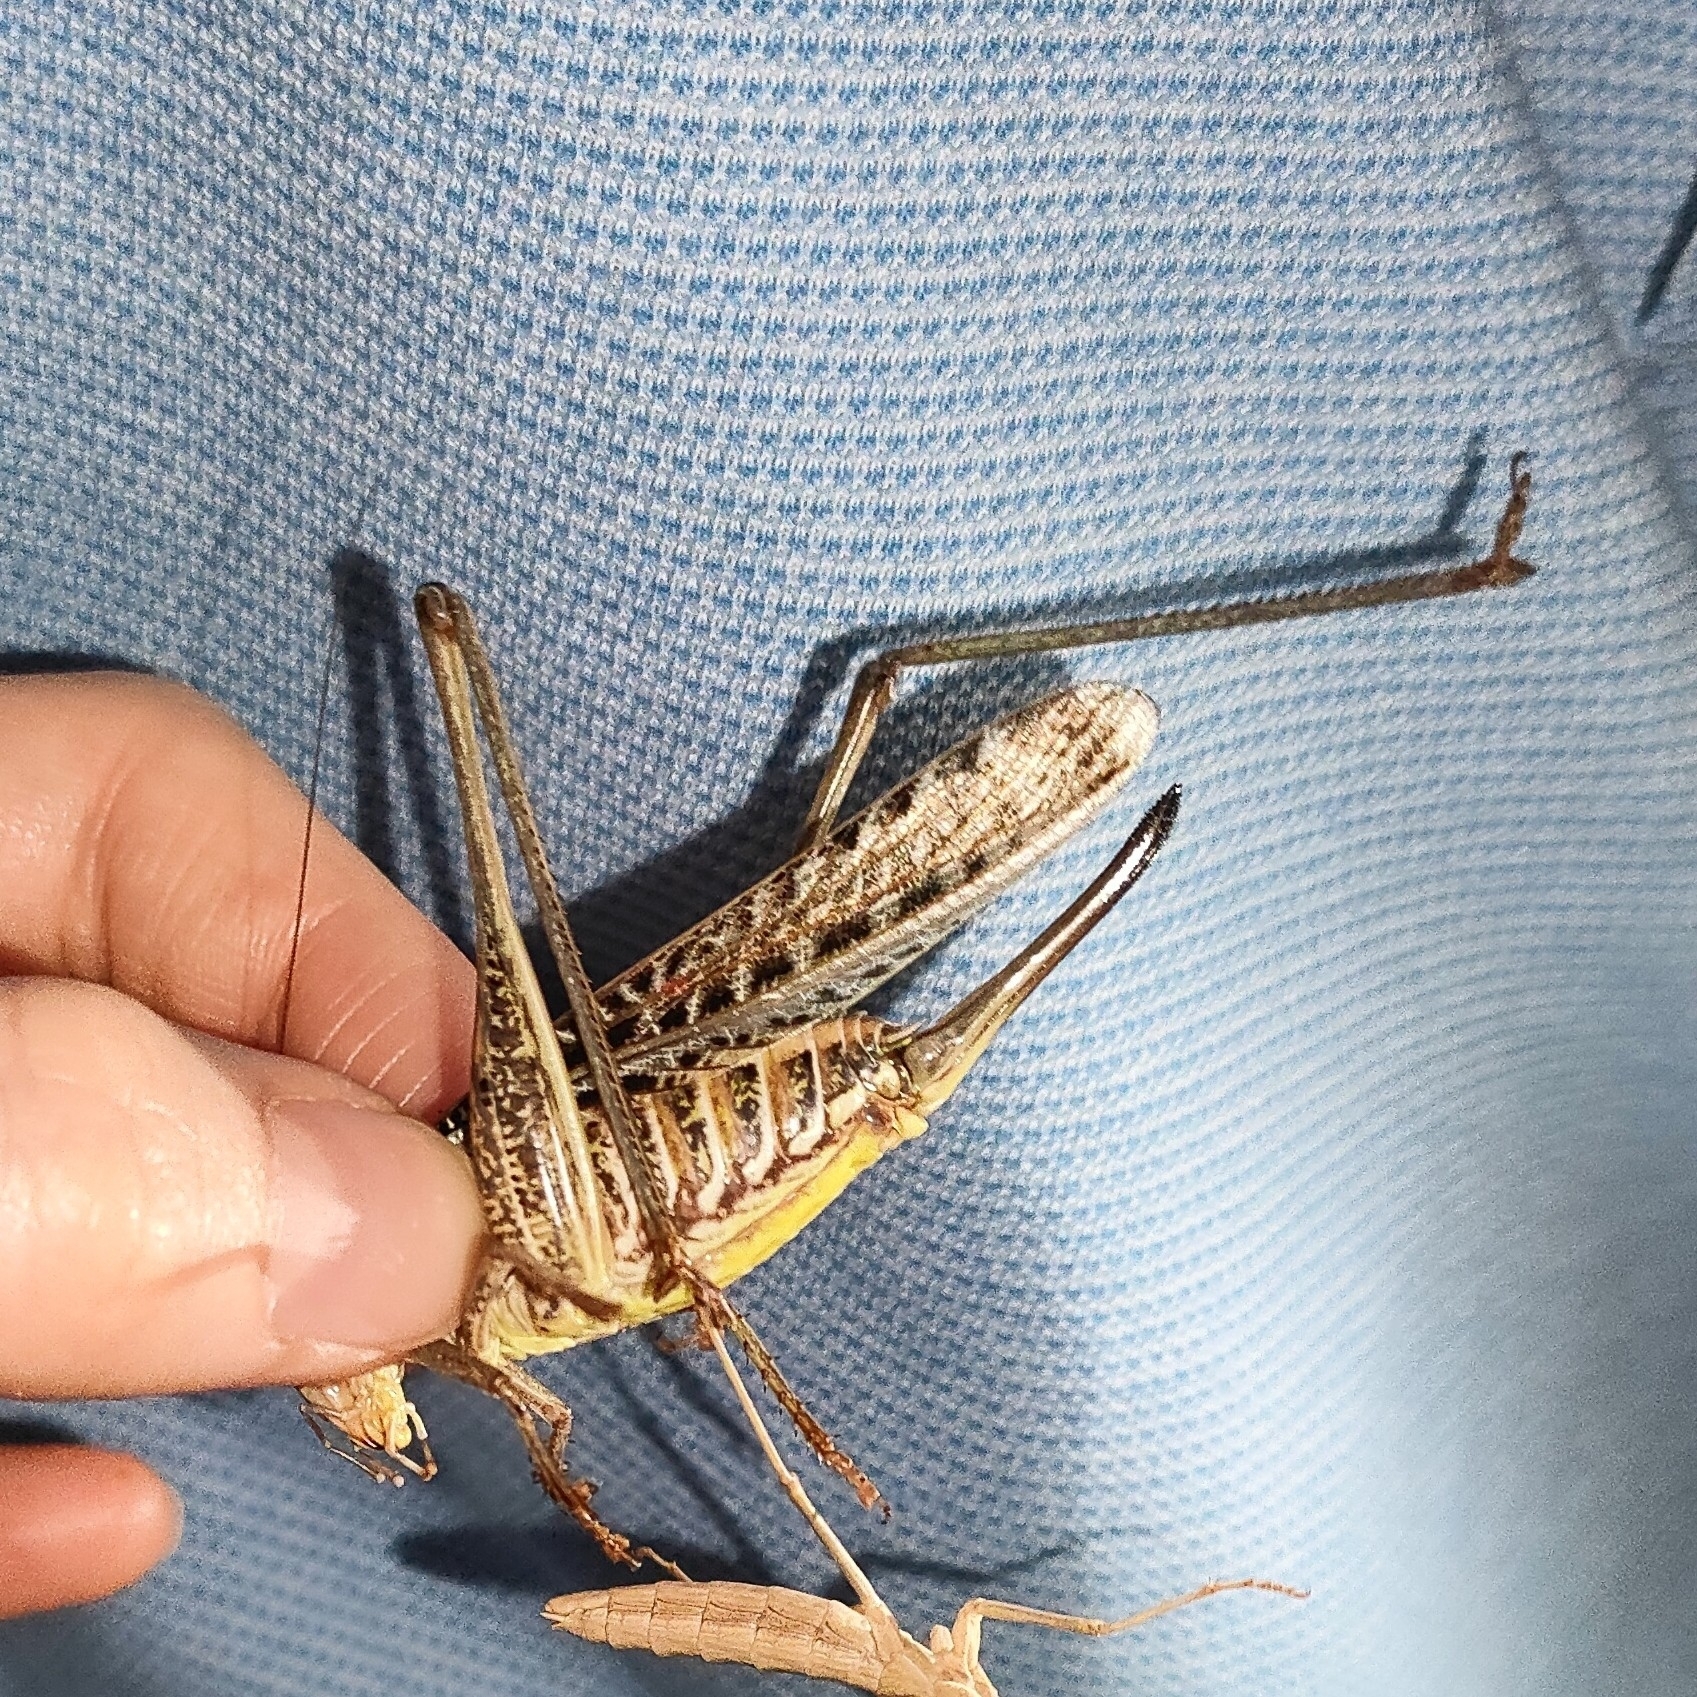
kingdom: Animalia
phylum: Arthropoda
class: Insecta
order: Orthoptera
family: Tettigoniidae
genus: Decticus
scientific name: Decticus albifrons
